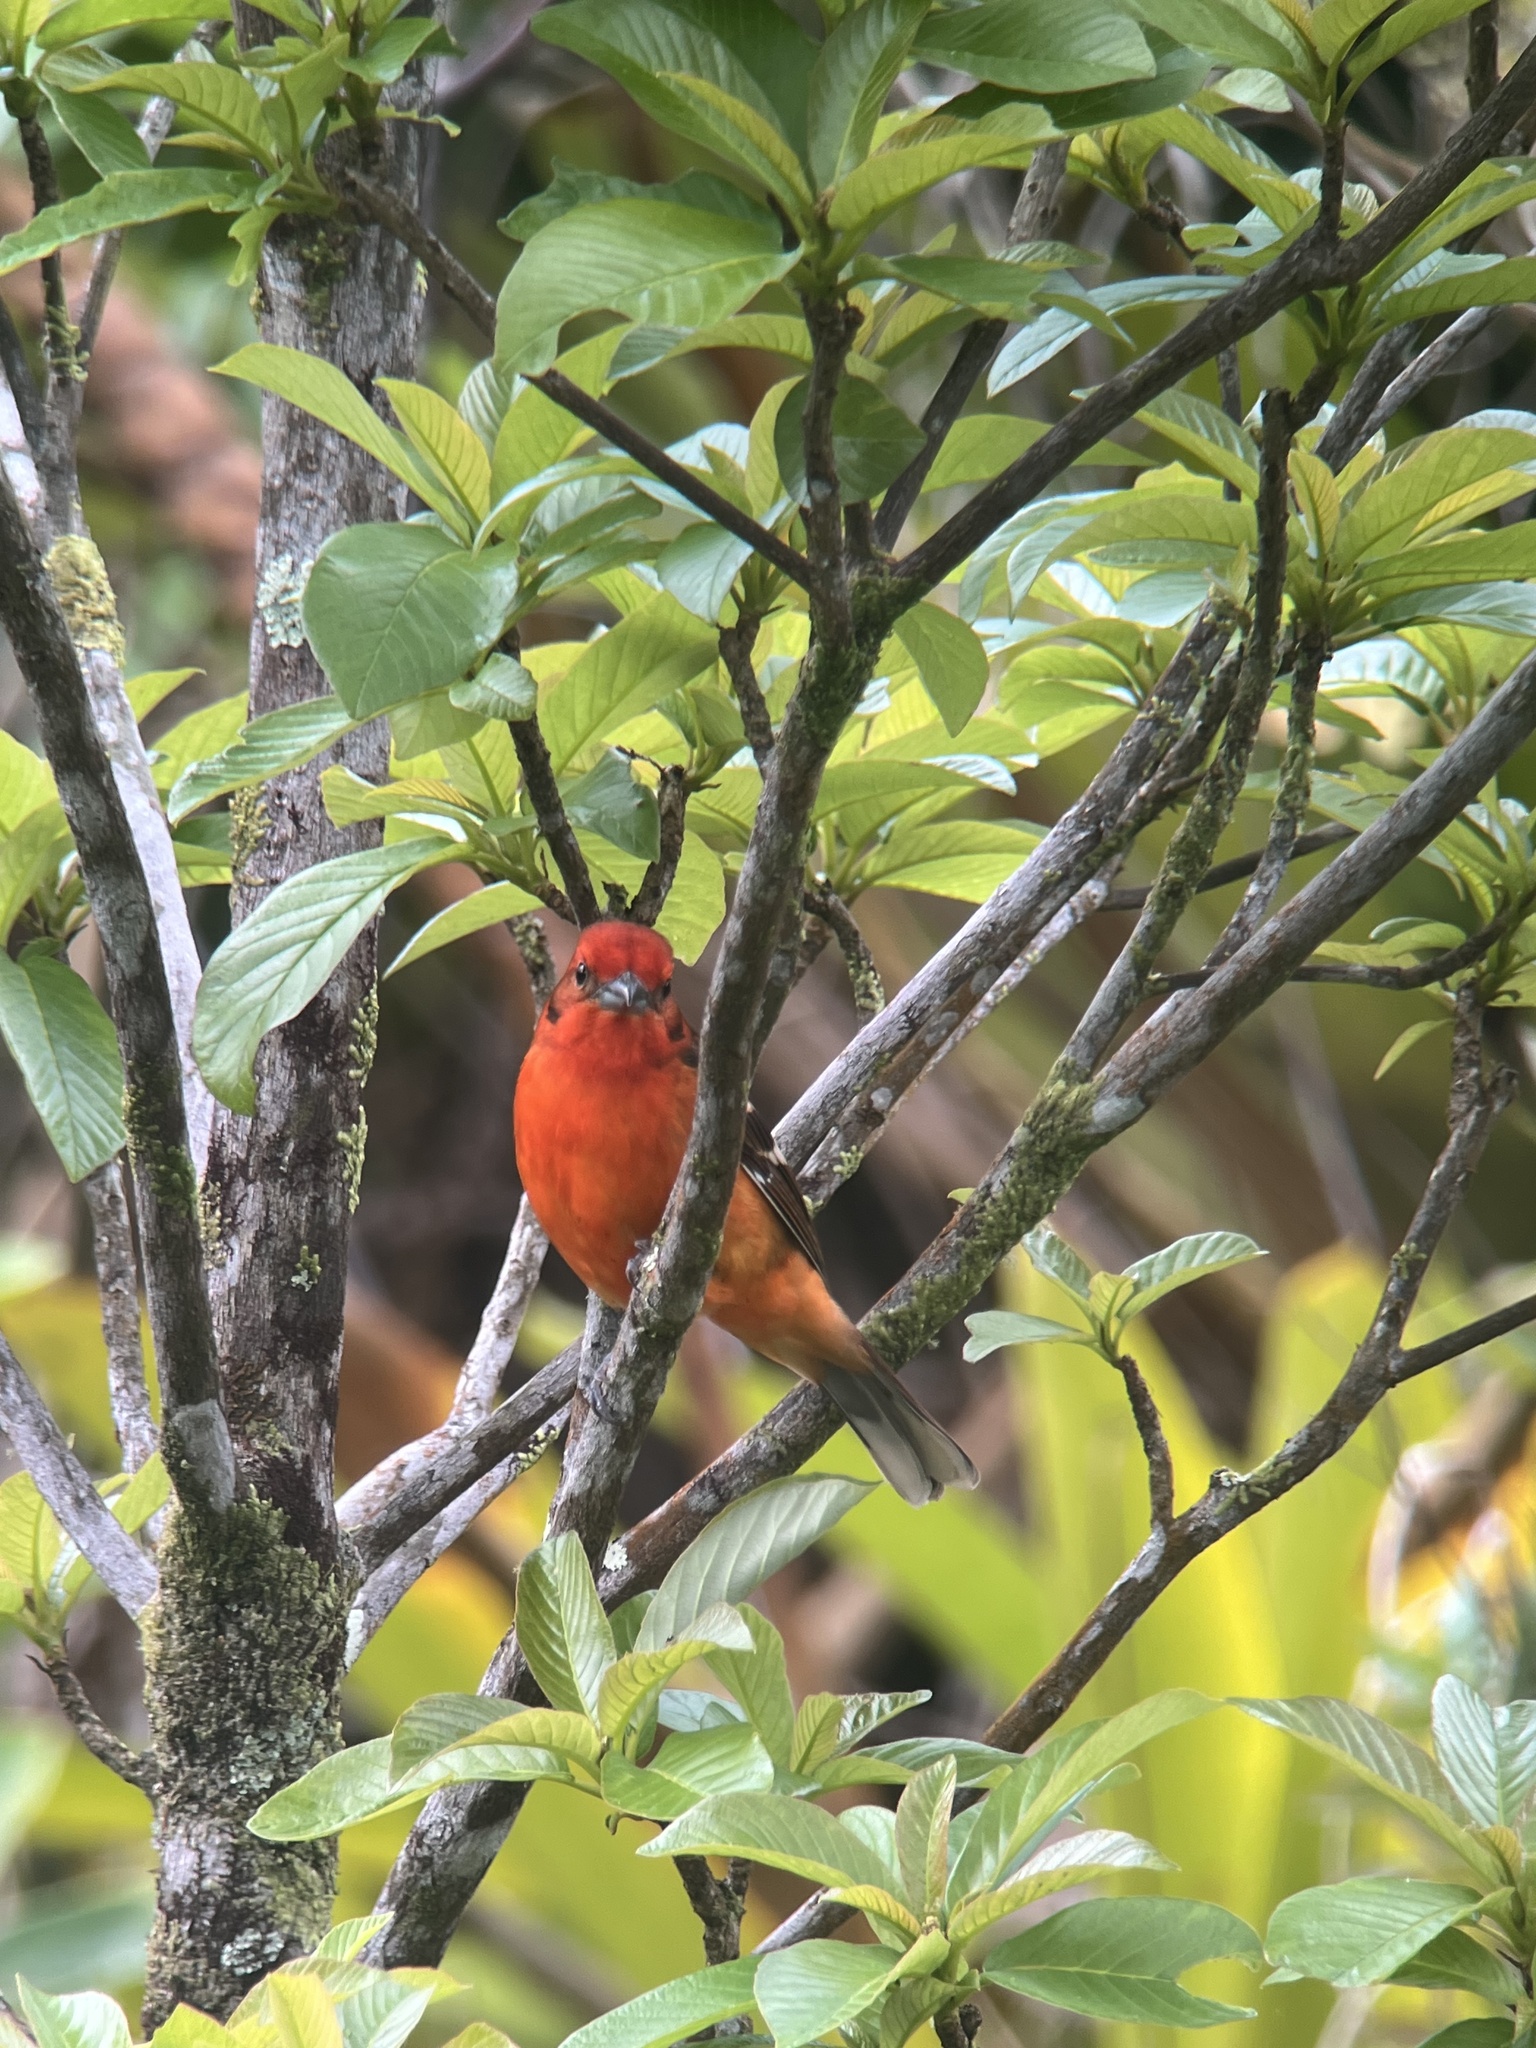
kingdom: Animalia
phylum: Chordata
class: Aves
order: Passeriformes
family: Cardinalidae
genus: Piranga
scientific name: Piranga bidentata
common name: Flame-colored tanager
